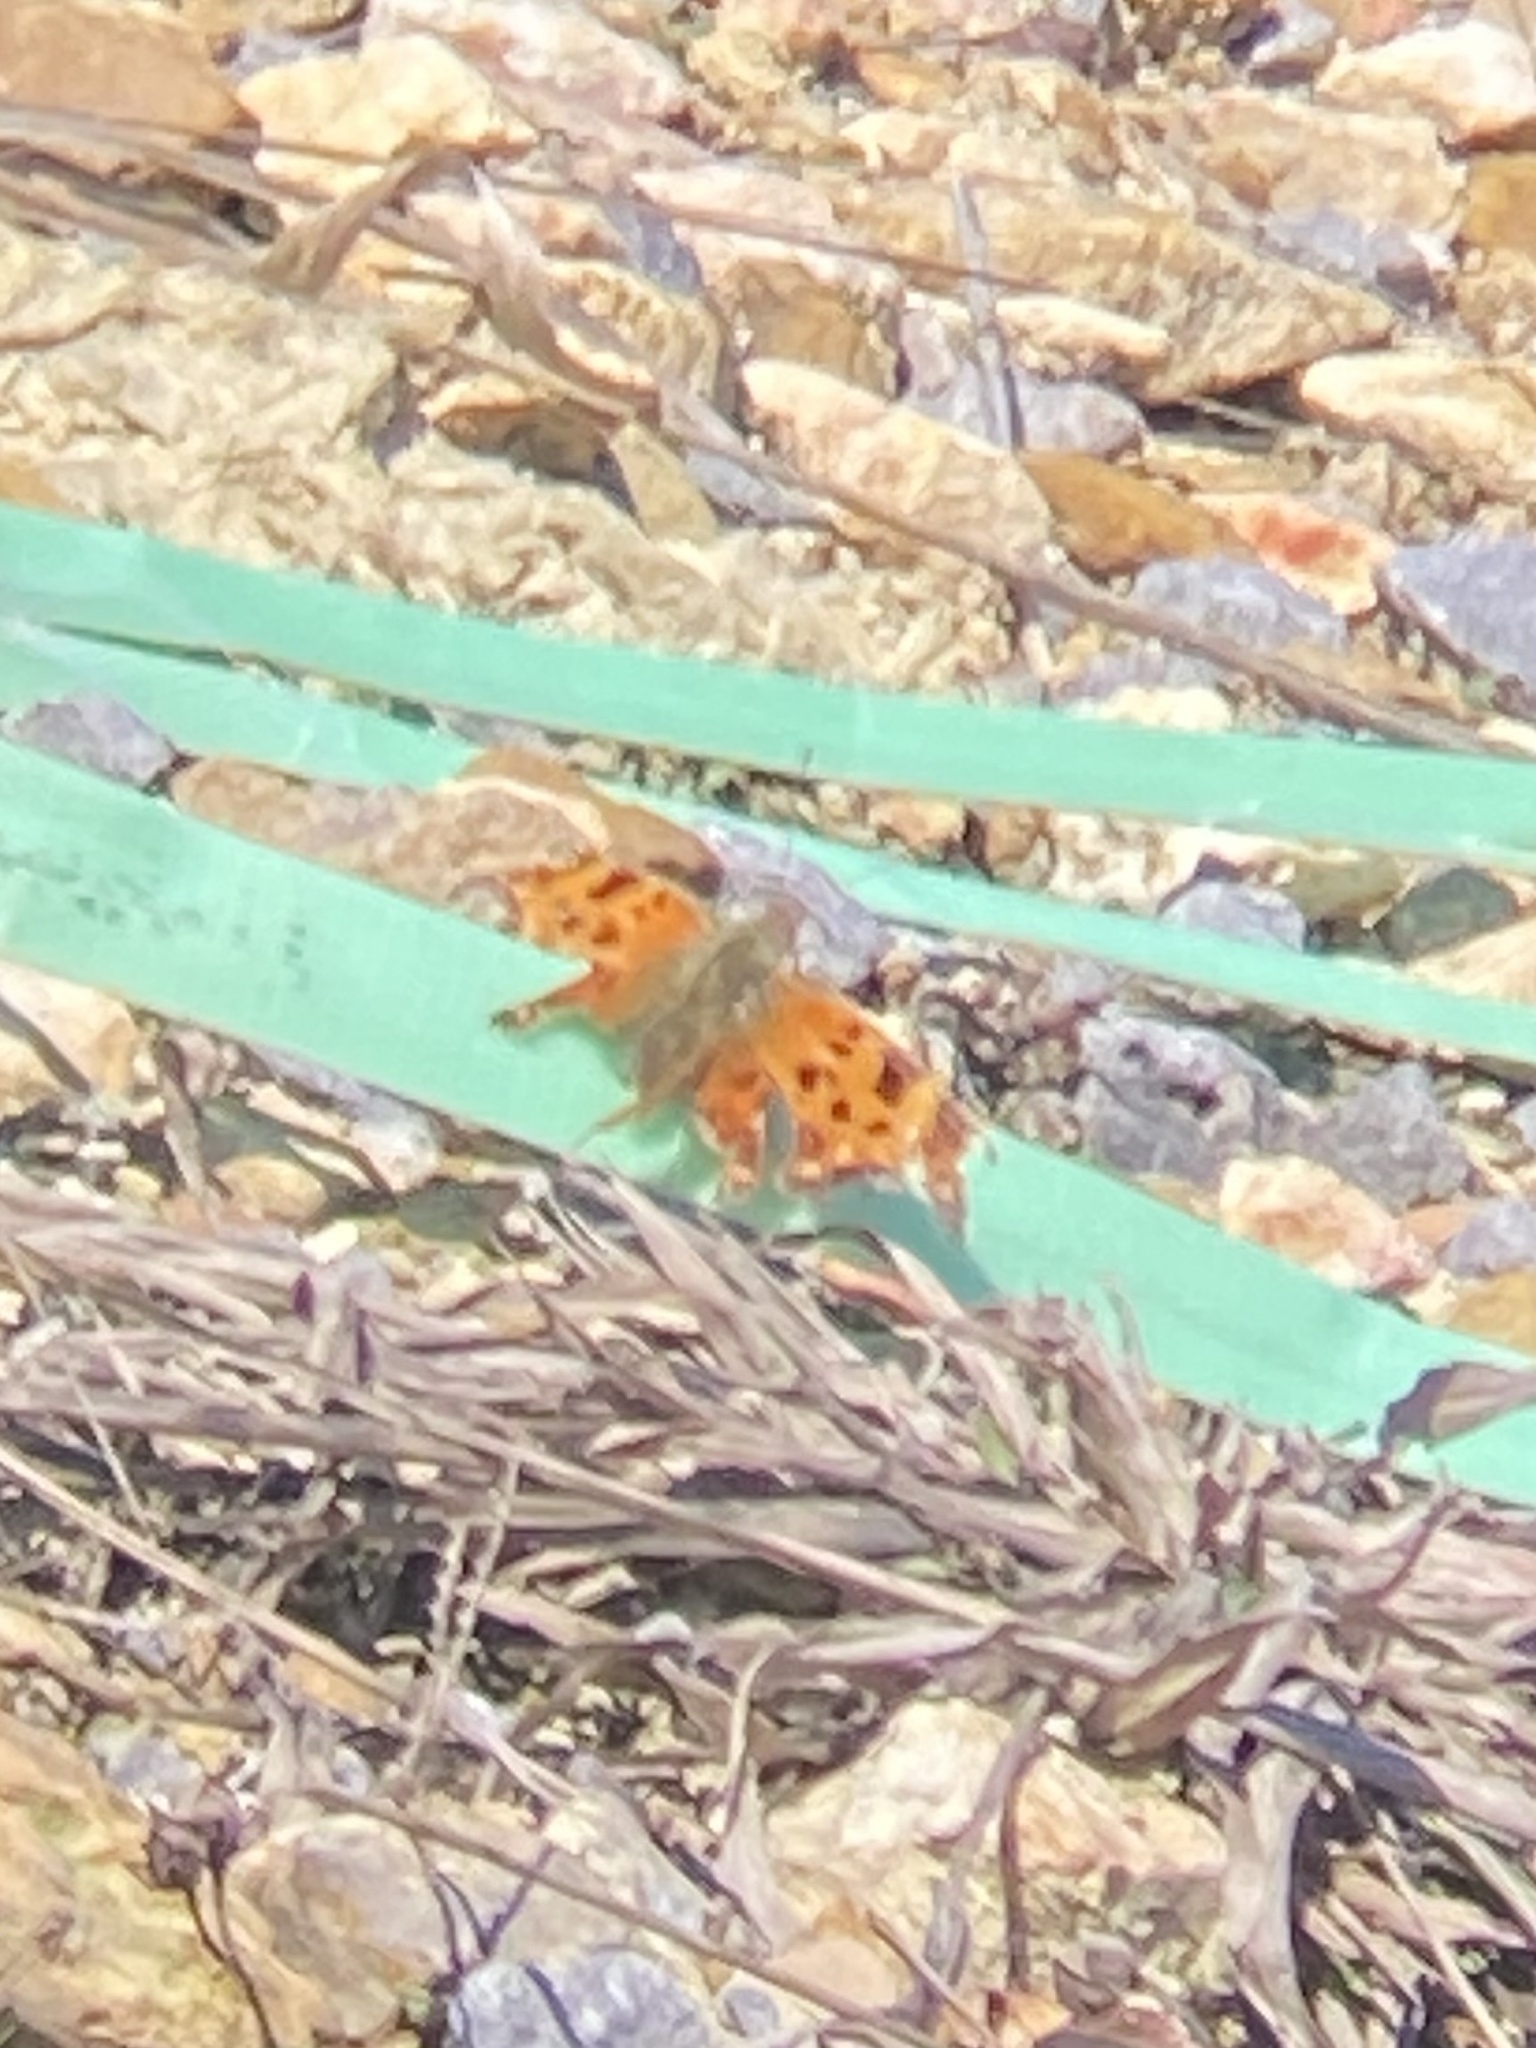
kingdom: Animalia
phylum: Arthropoda
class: Insecta
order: Lepidoptera
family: Nymphalidae
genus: Polygonia
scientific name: Polygonia comma
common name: Eastern comma
